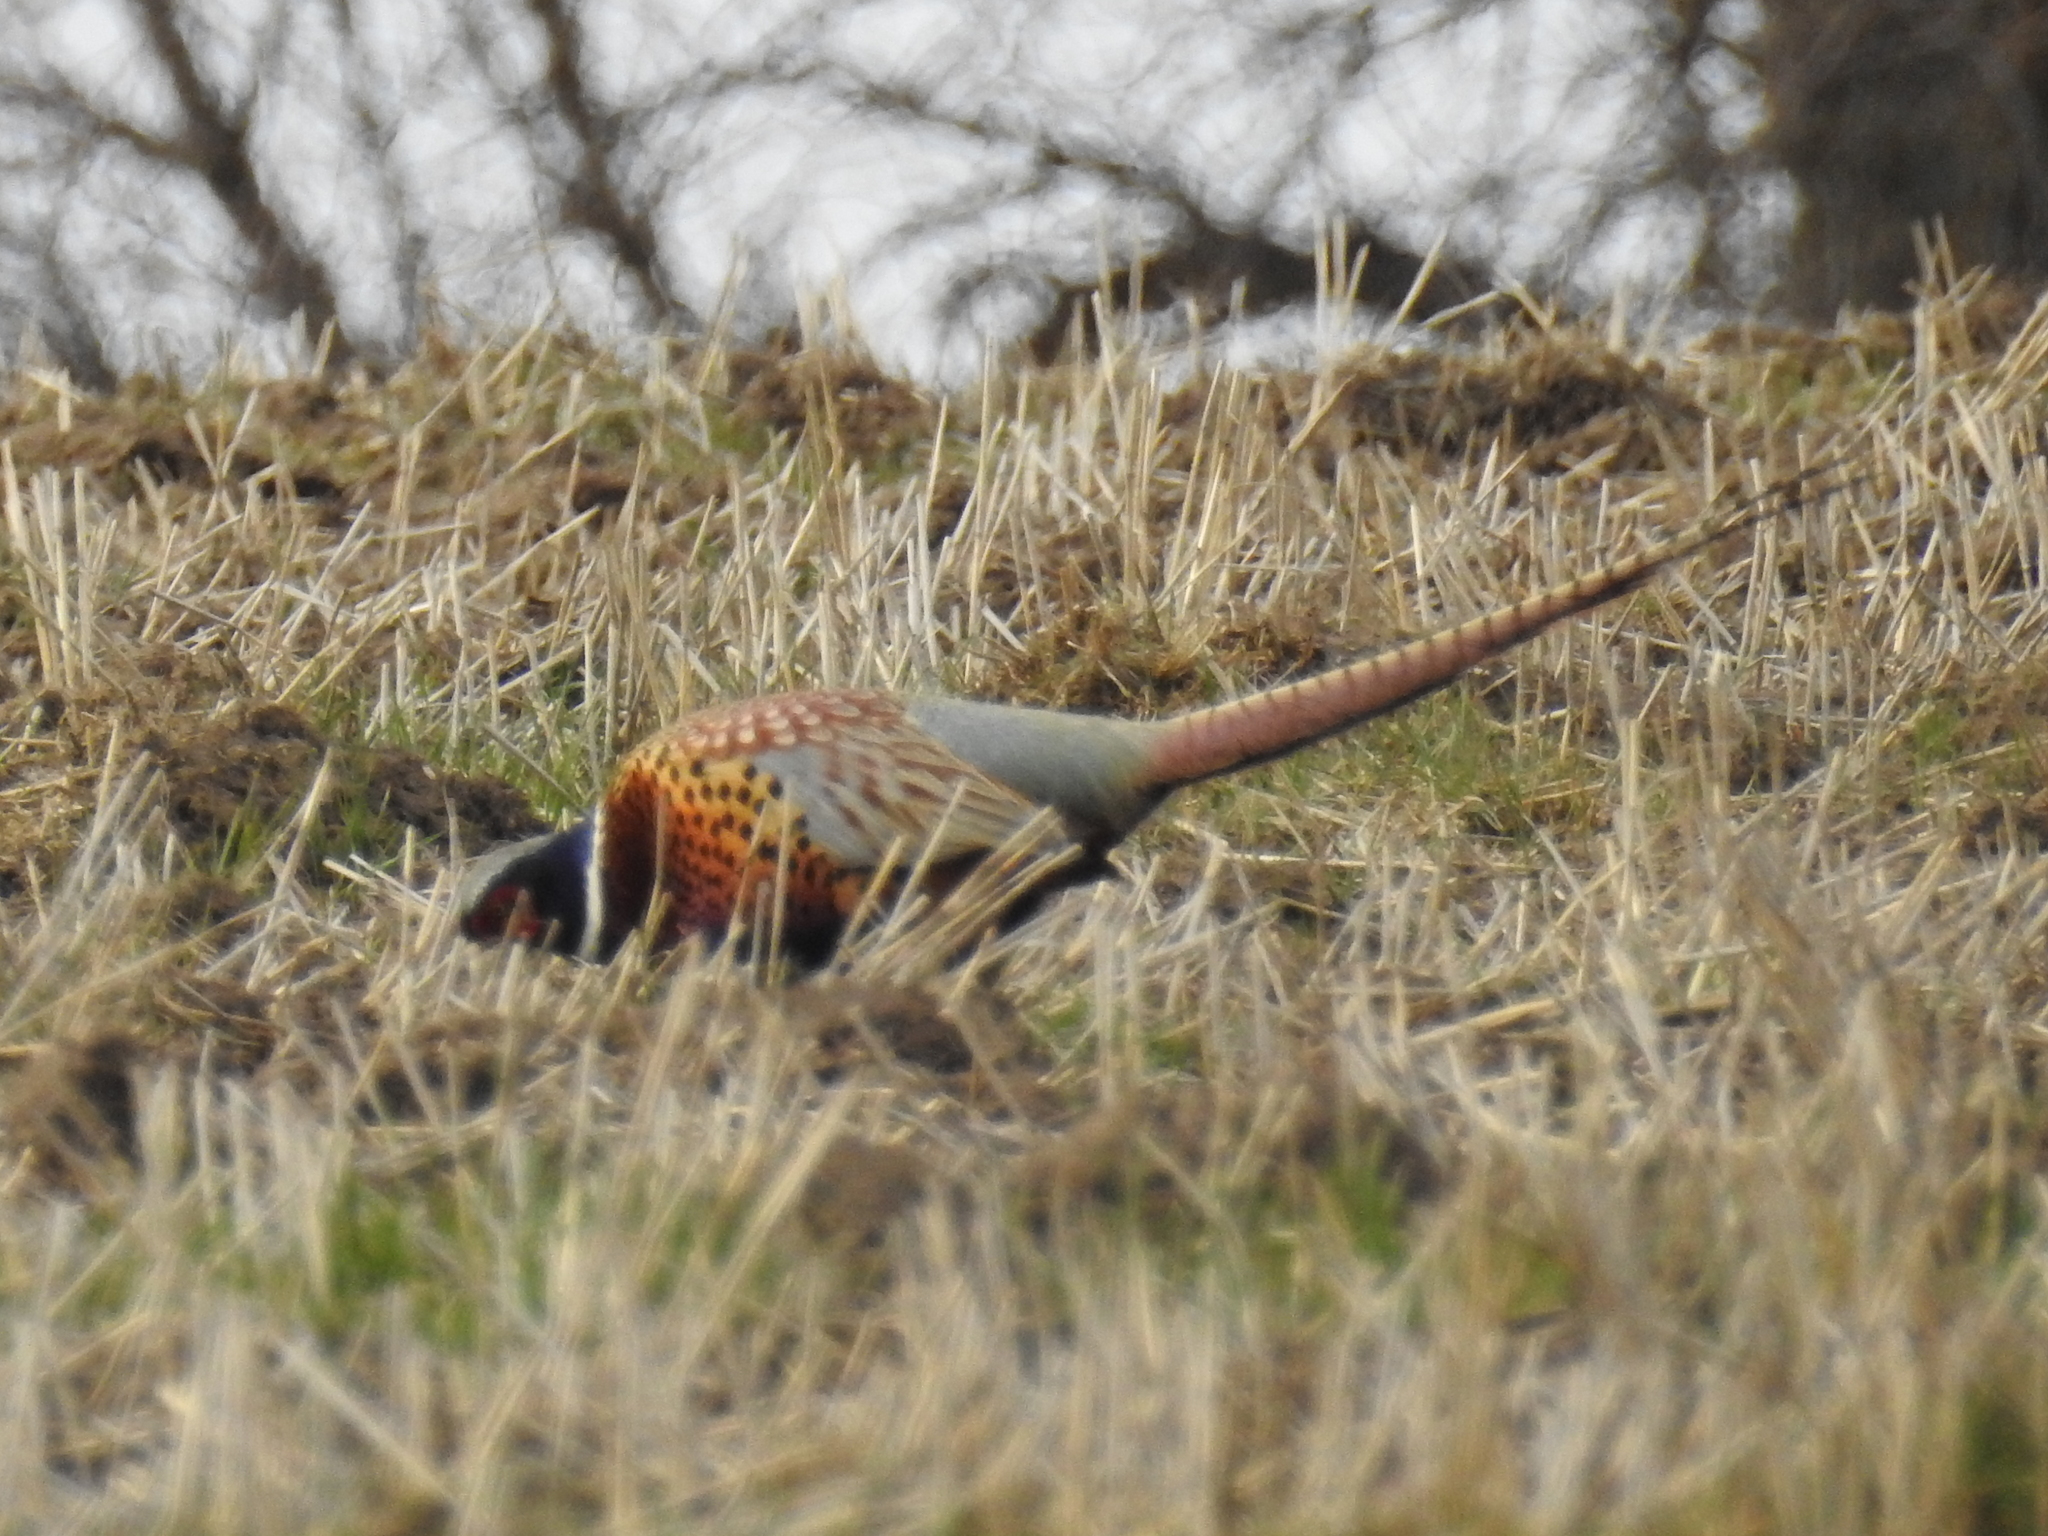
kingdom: Animalia
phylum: Chordata
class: Aves
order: Galliformes
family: Phasianidae
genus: Phasianus
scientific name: Phasianus colchicus
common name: Common pheasant
